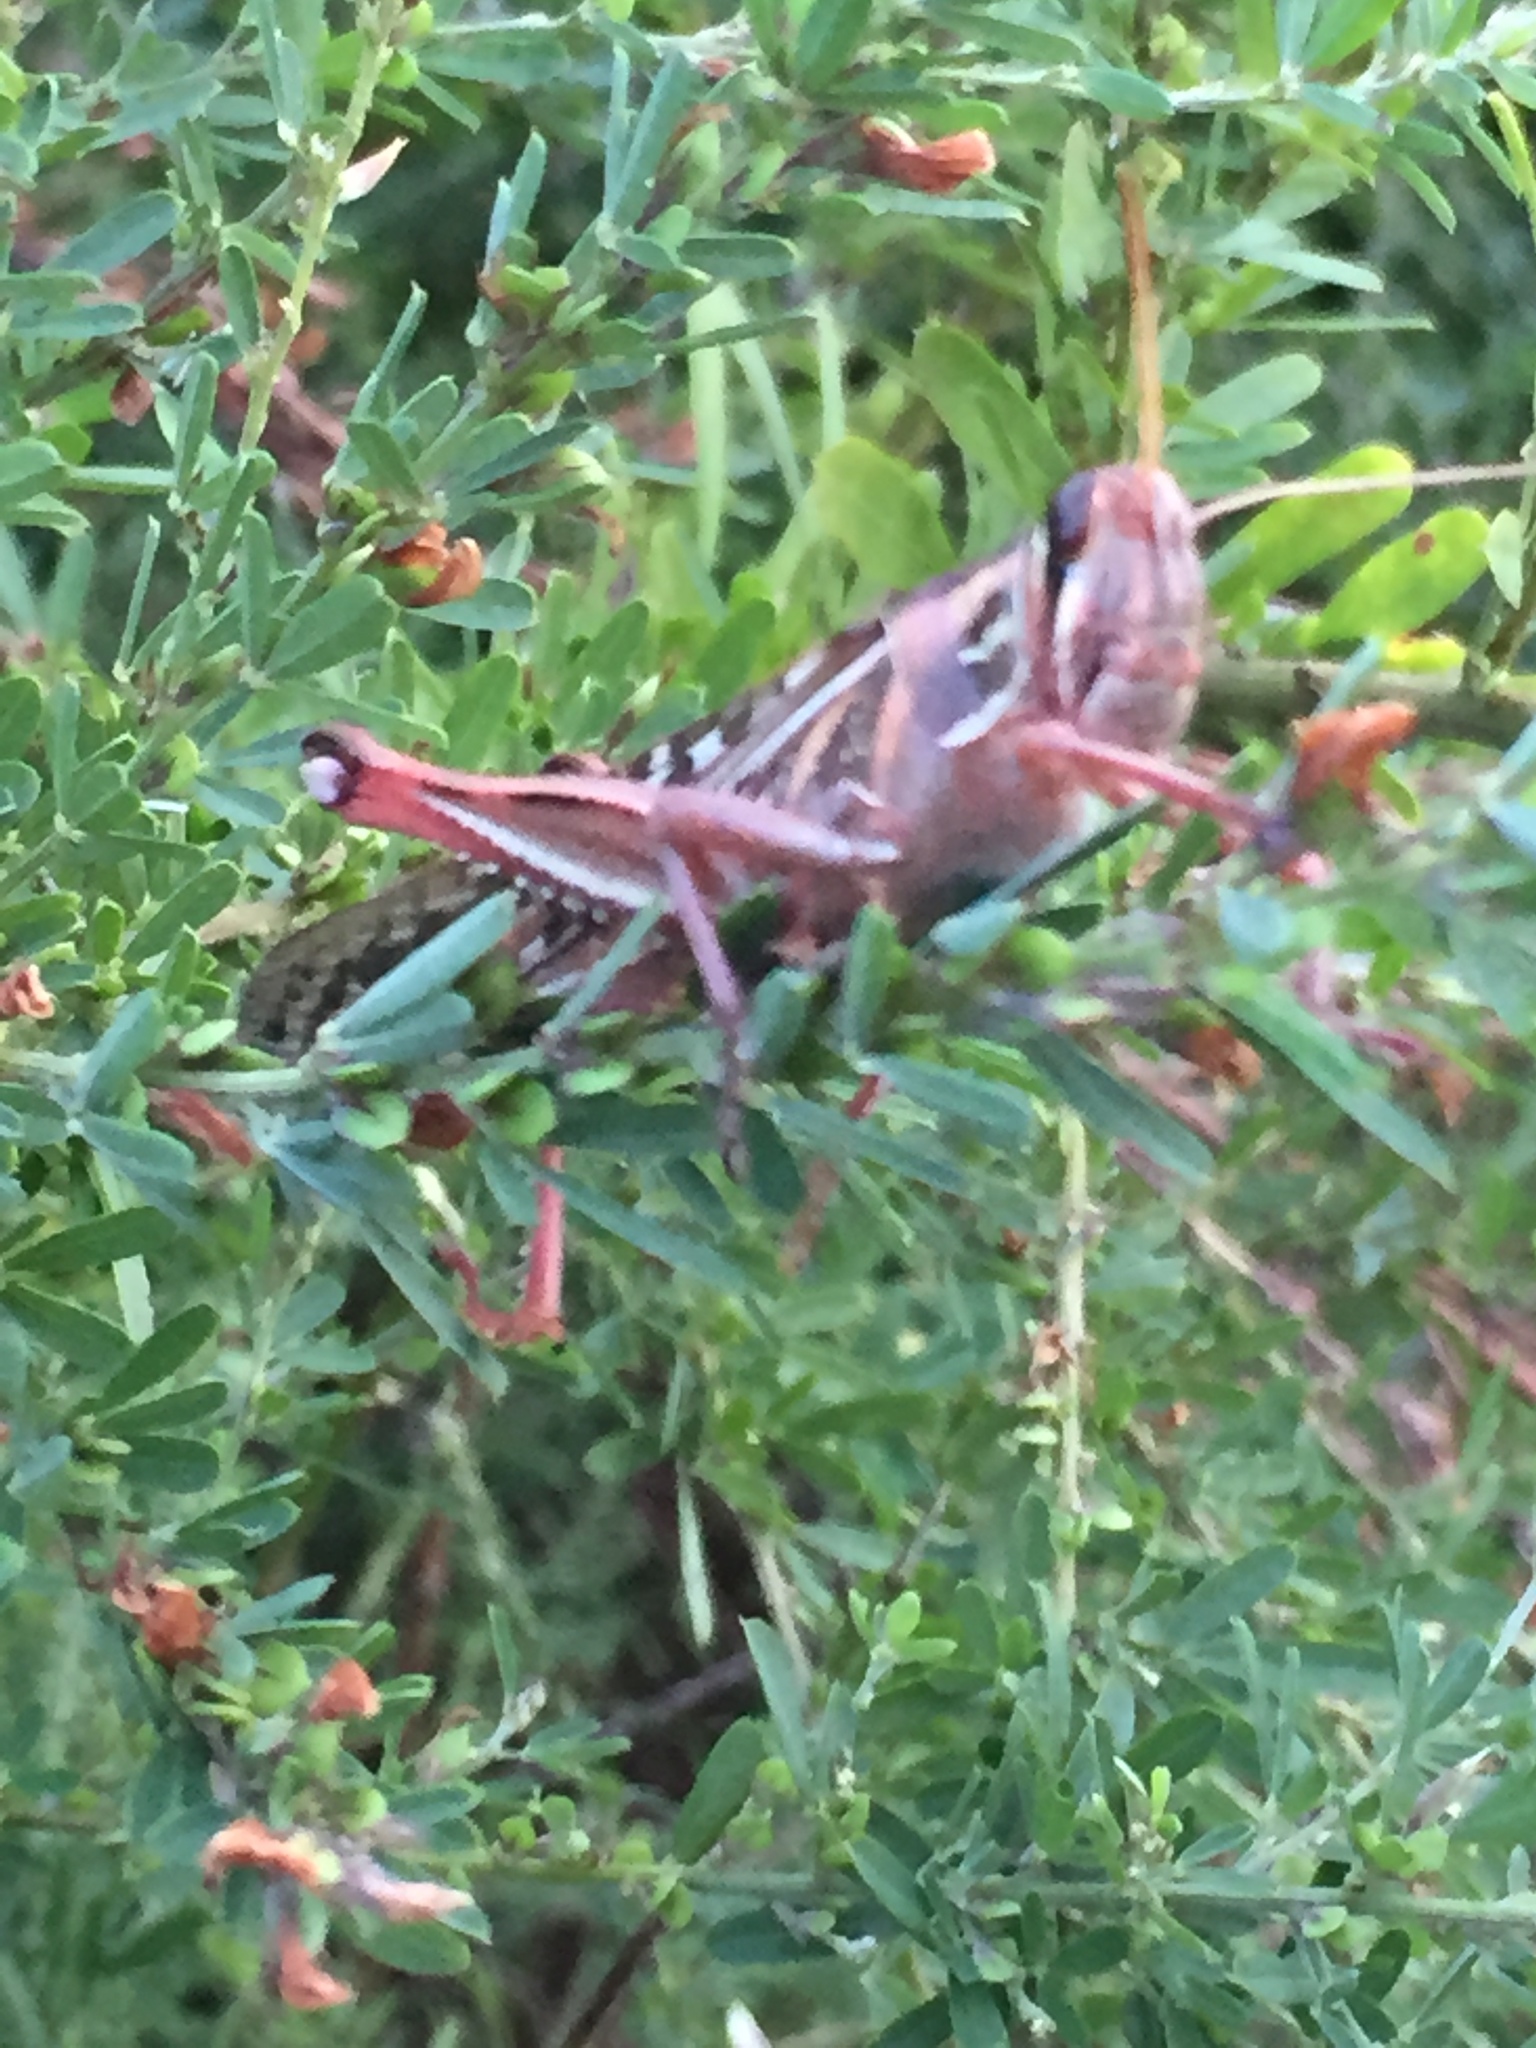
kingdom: Animalia
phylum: Arthropoda
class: Insecta
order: Orthoptera
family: Acrididae
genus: Schistocerca
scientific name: Schistocerca americana
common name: American bird locust
